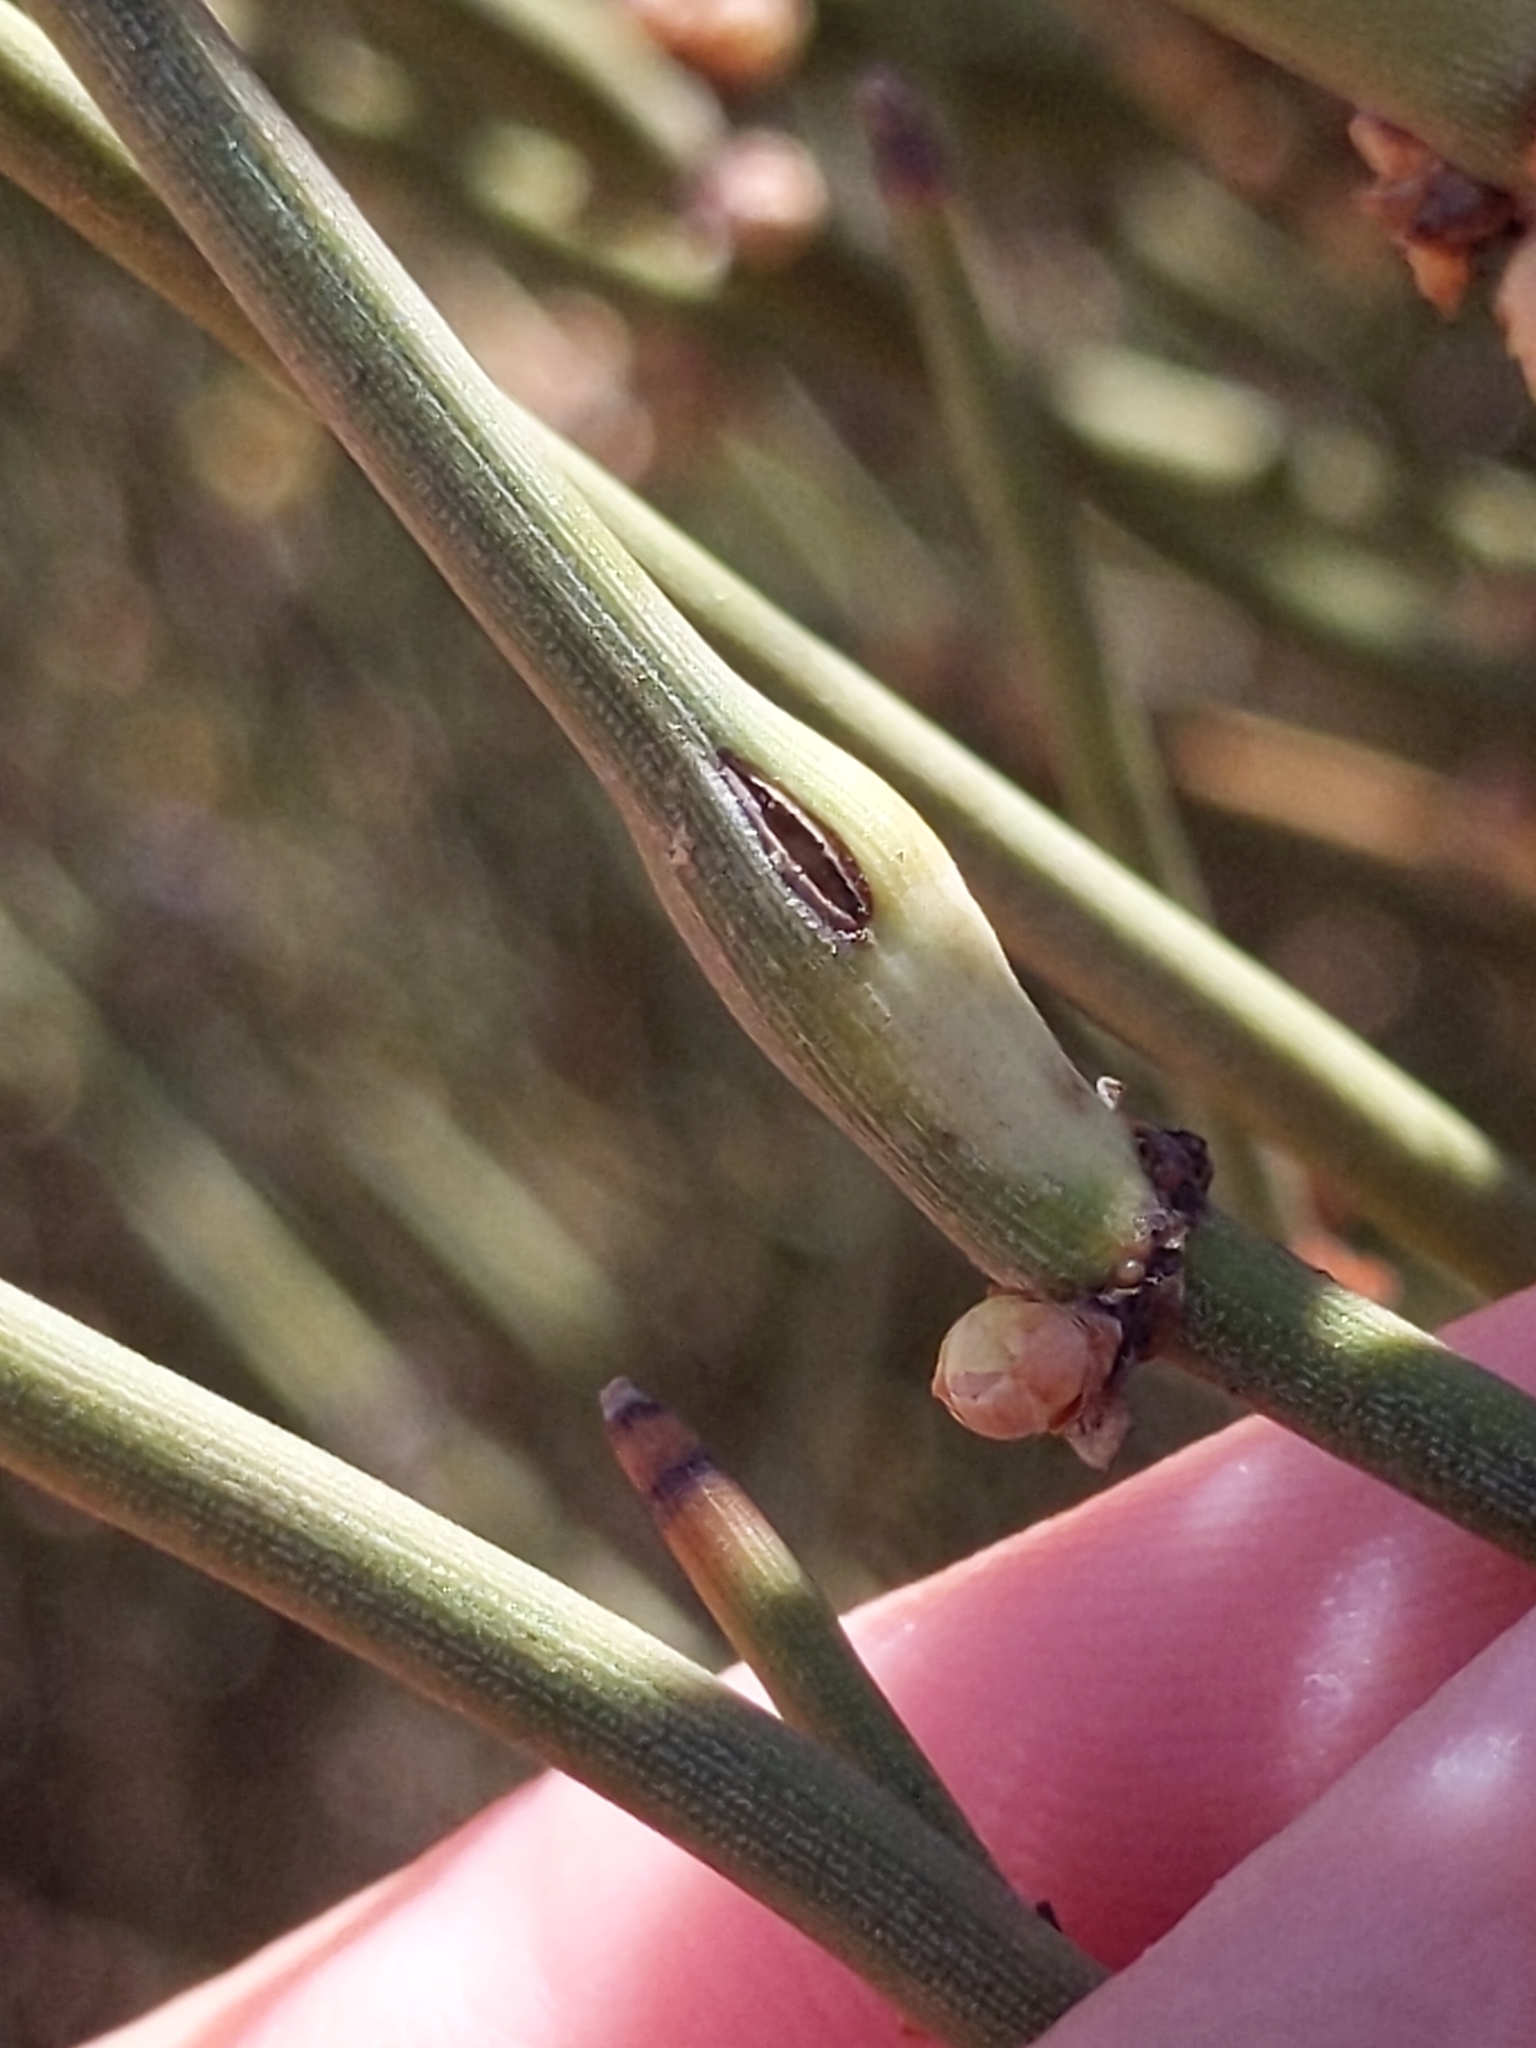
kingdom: Animalia
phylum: Arthropoda
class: Insecta
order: Diptera
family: Cecidomyiidae
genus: Lasioptera
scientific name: Lasioptera ephedrae
